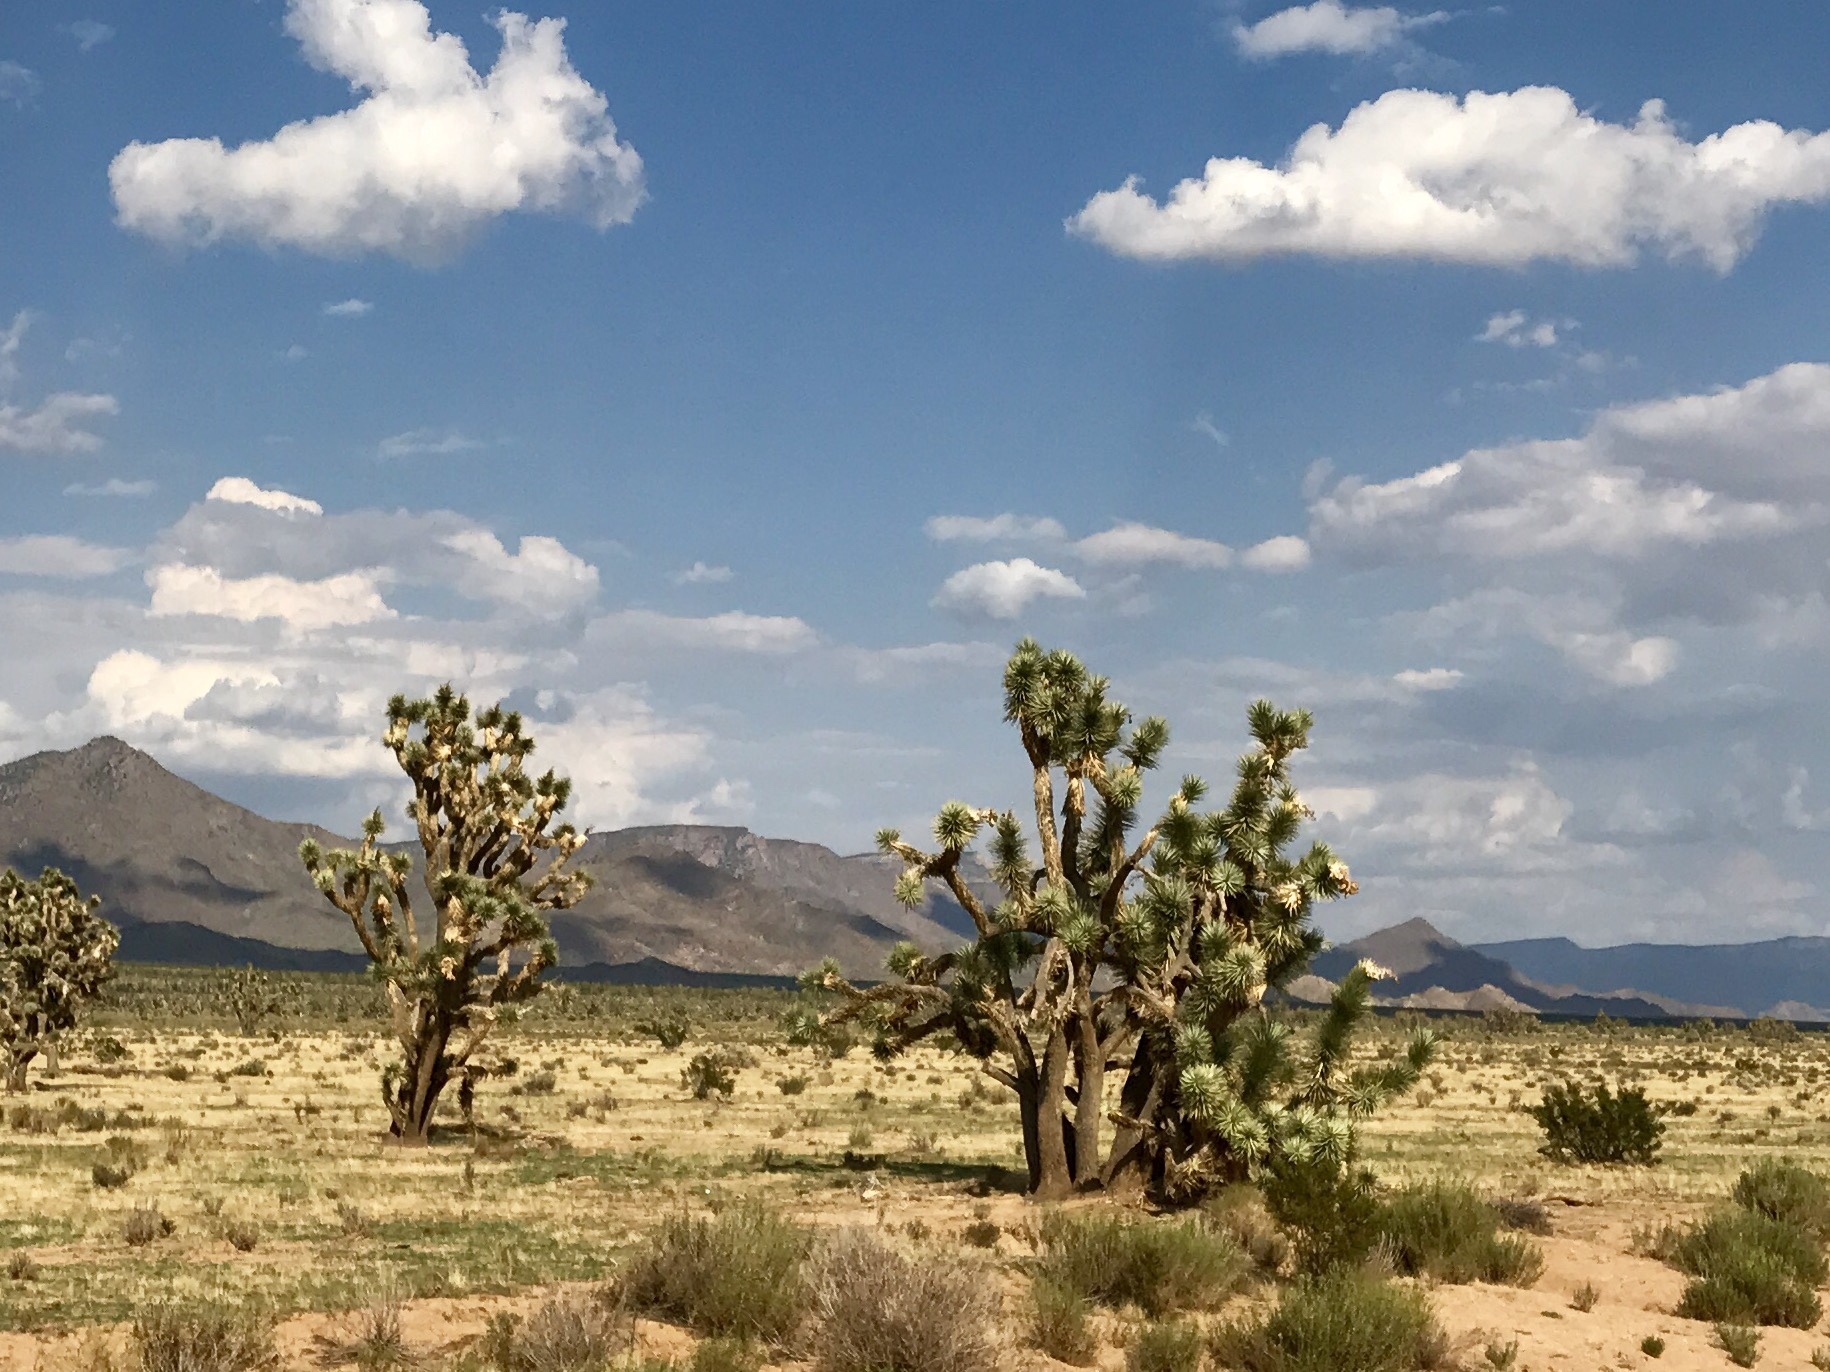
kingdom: Plantae
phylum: Tracheophyta
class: Liliopsida
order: Asparagales
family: Asparagaceae
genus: Yucca
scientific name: Yucca brevifolia
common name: Joshua tree
